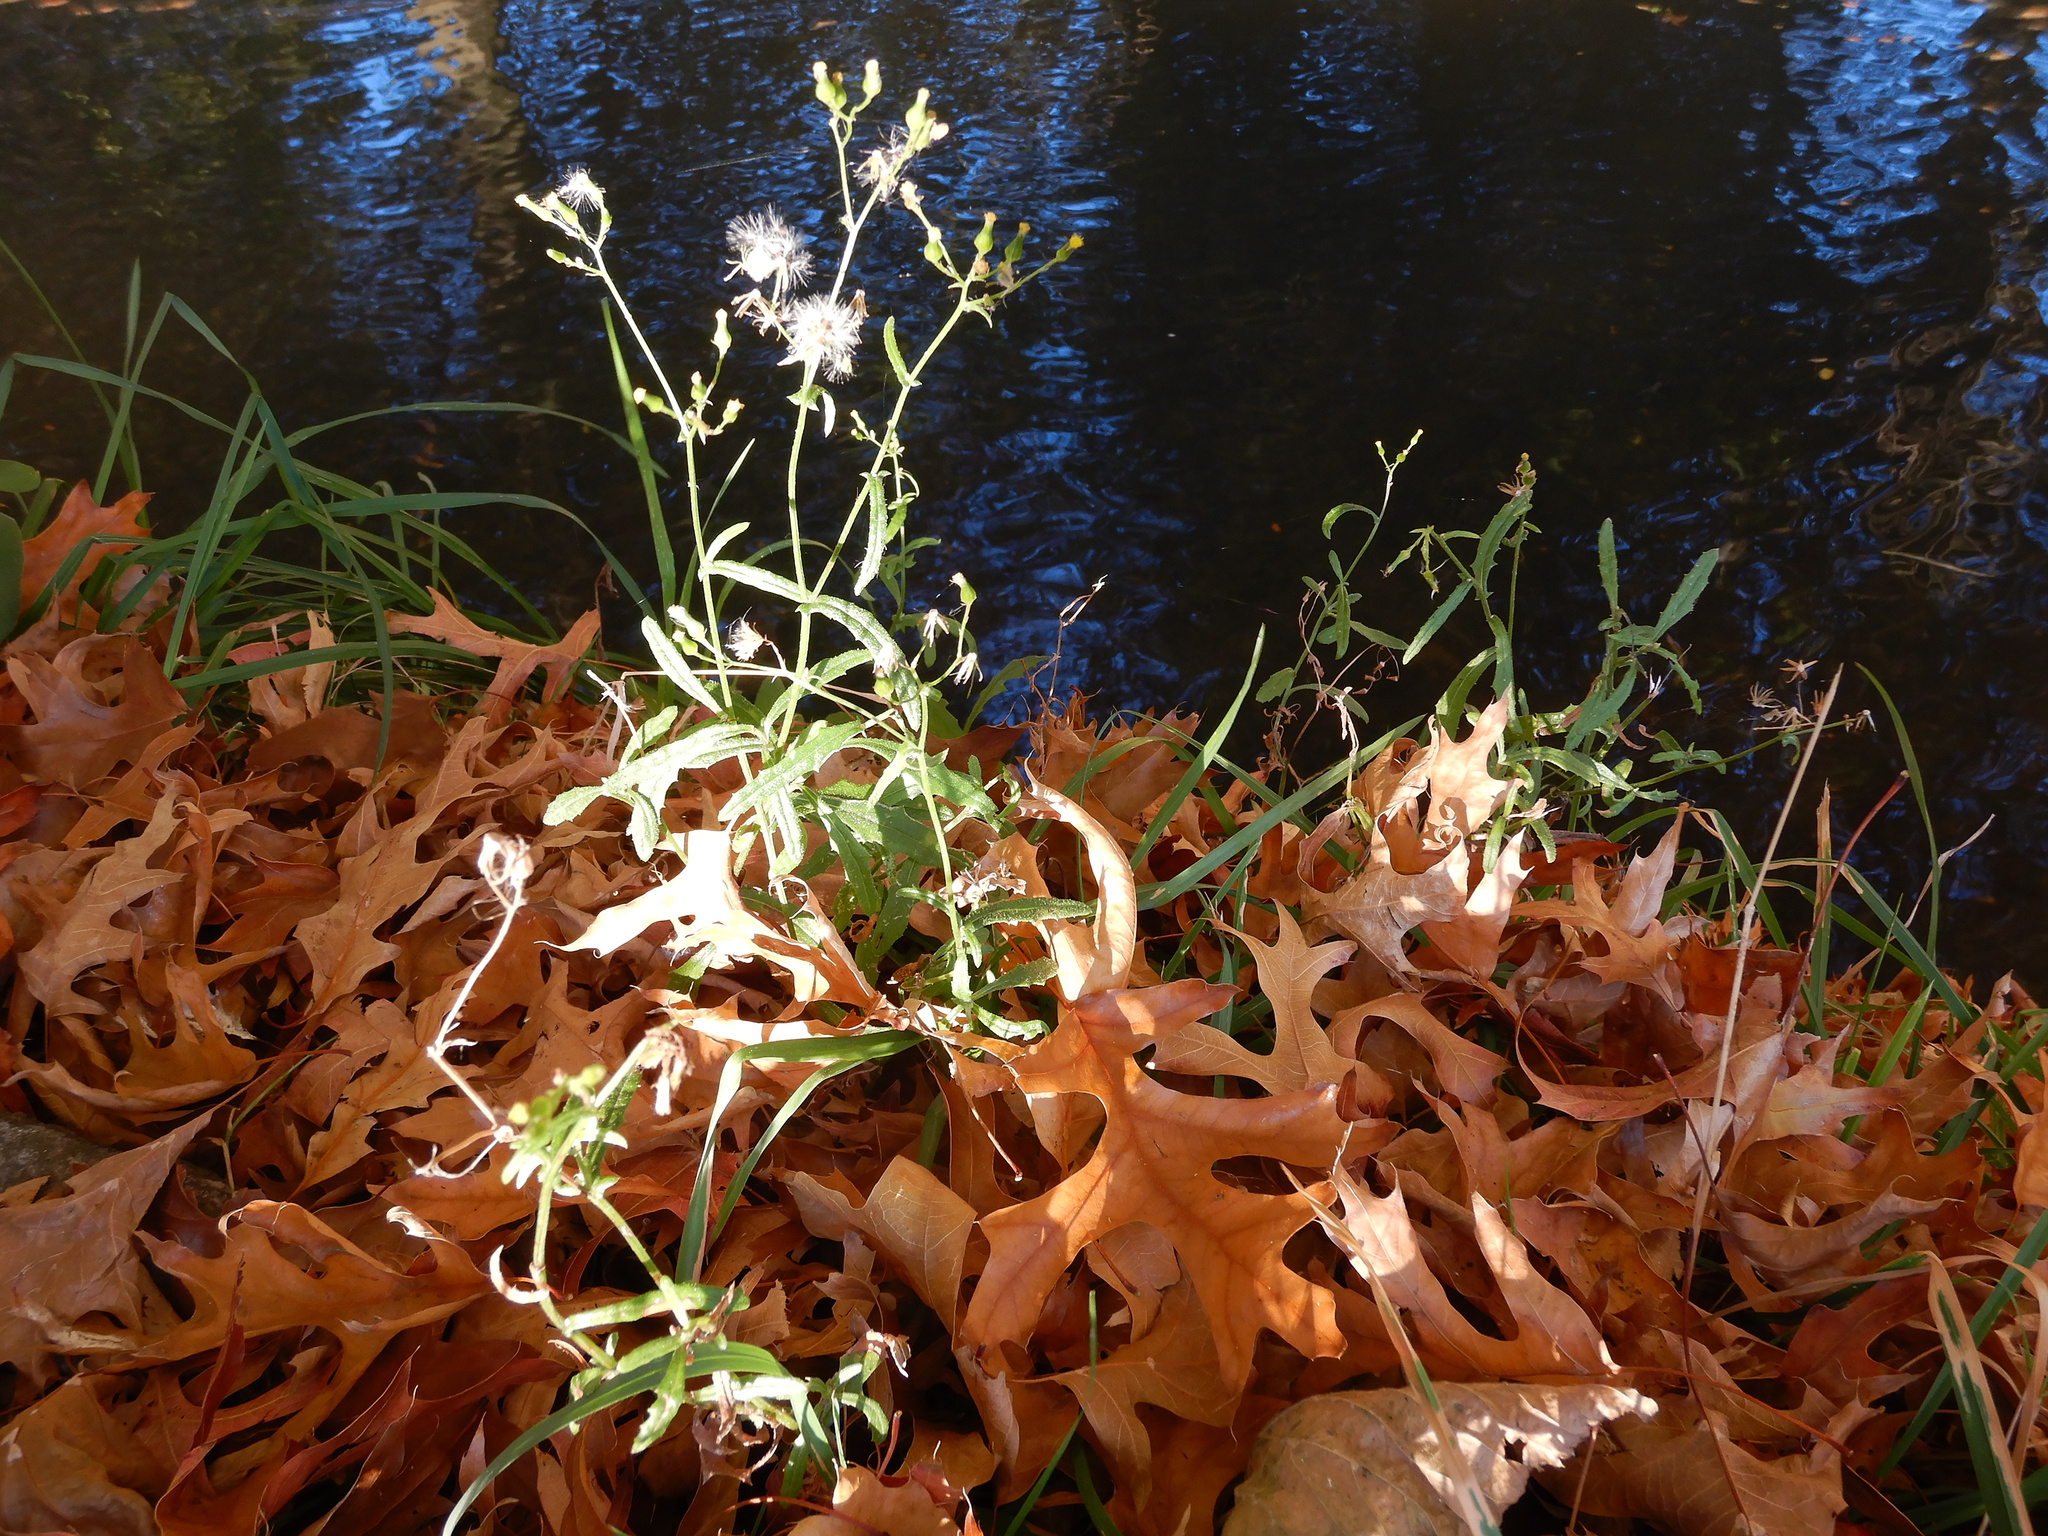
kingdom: Plantae
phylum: Tracheophyta
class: Magnoliopsida
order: Asterales
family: Asteraceae
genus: Senecio
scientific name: Senecio vulgaris
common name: Old-man-in-the-spring
